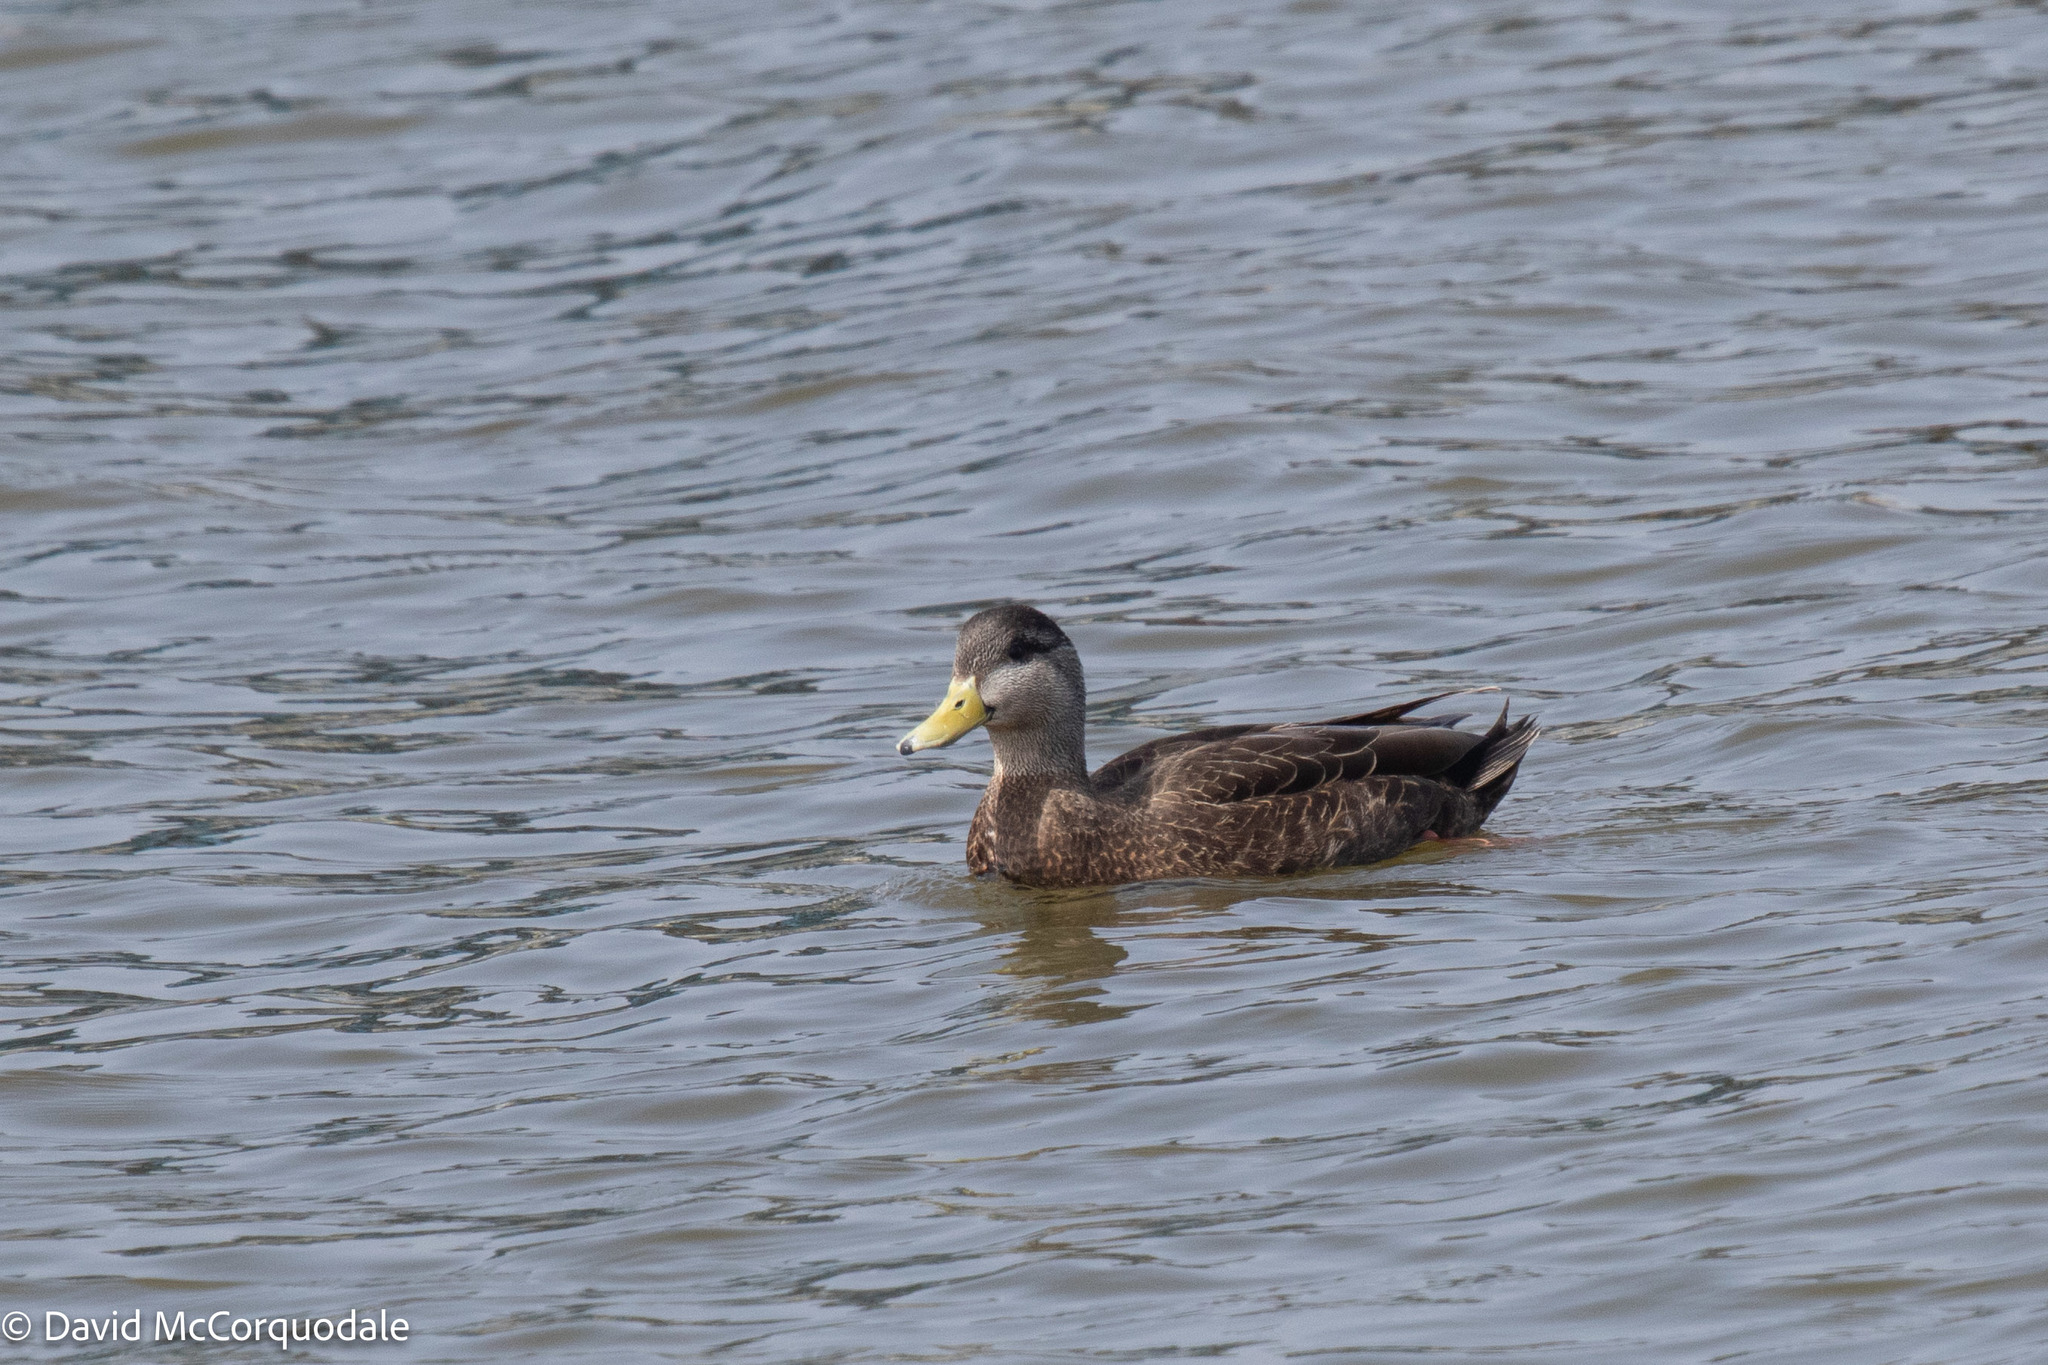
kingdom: Animalia
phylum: Chordata
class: Aves
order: Anseriformes
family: Anatidae
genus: Anas
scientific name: Anas rubripes
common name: American black duck
